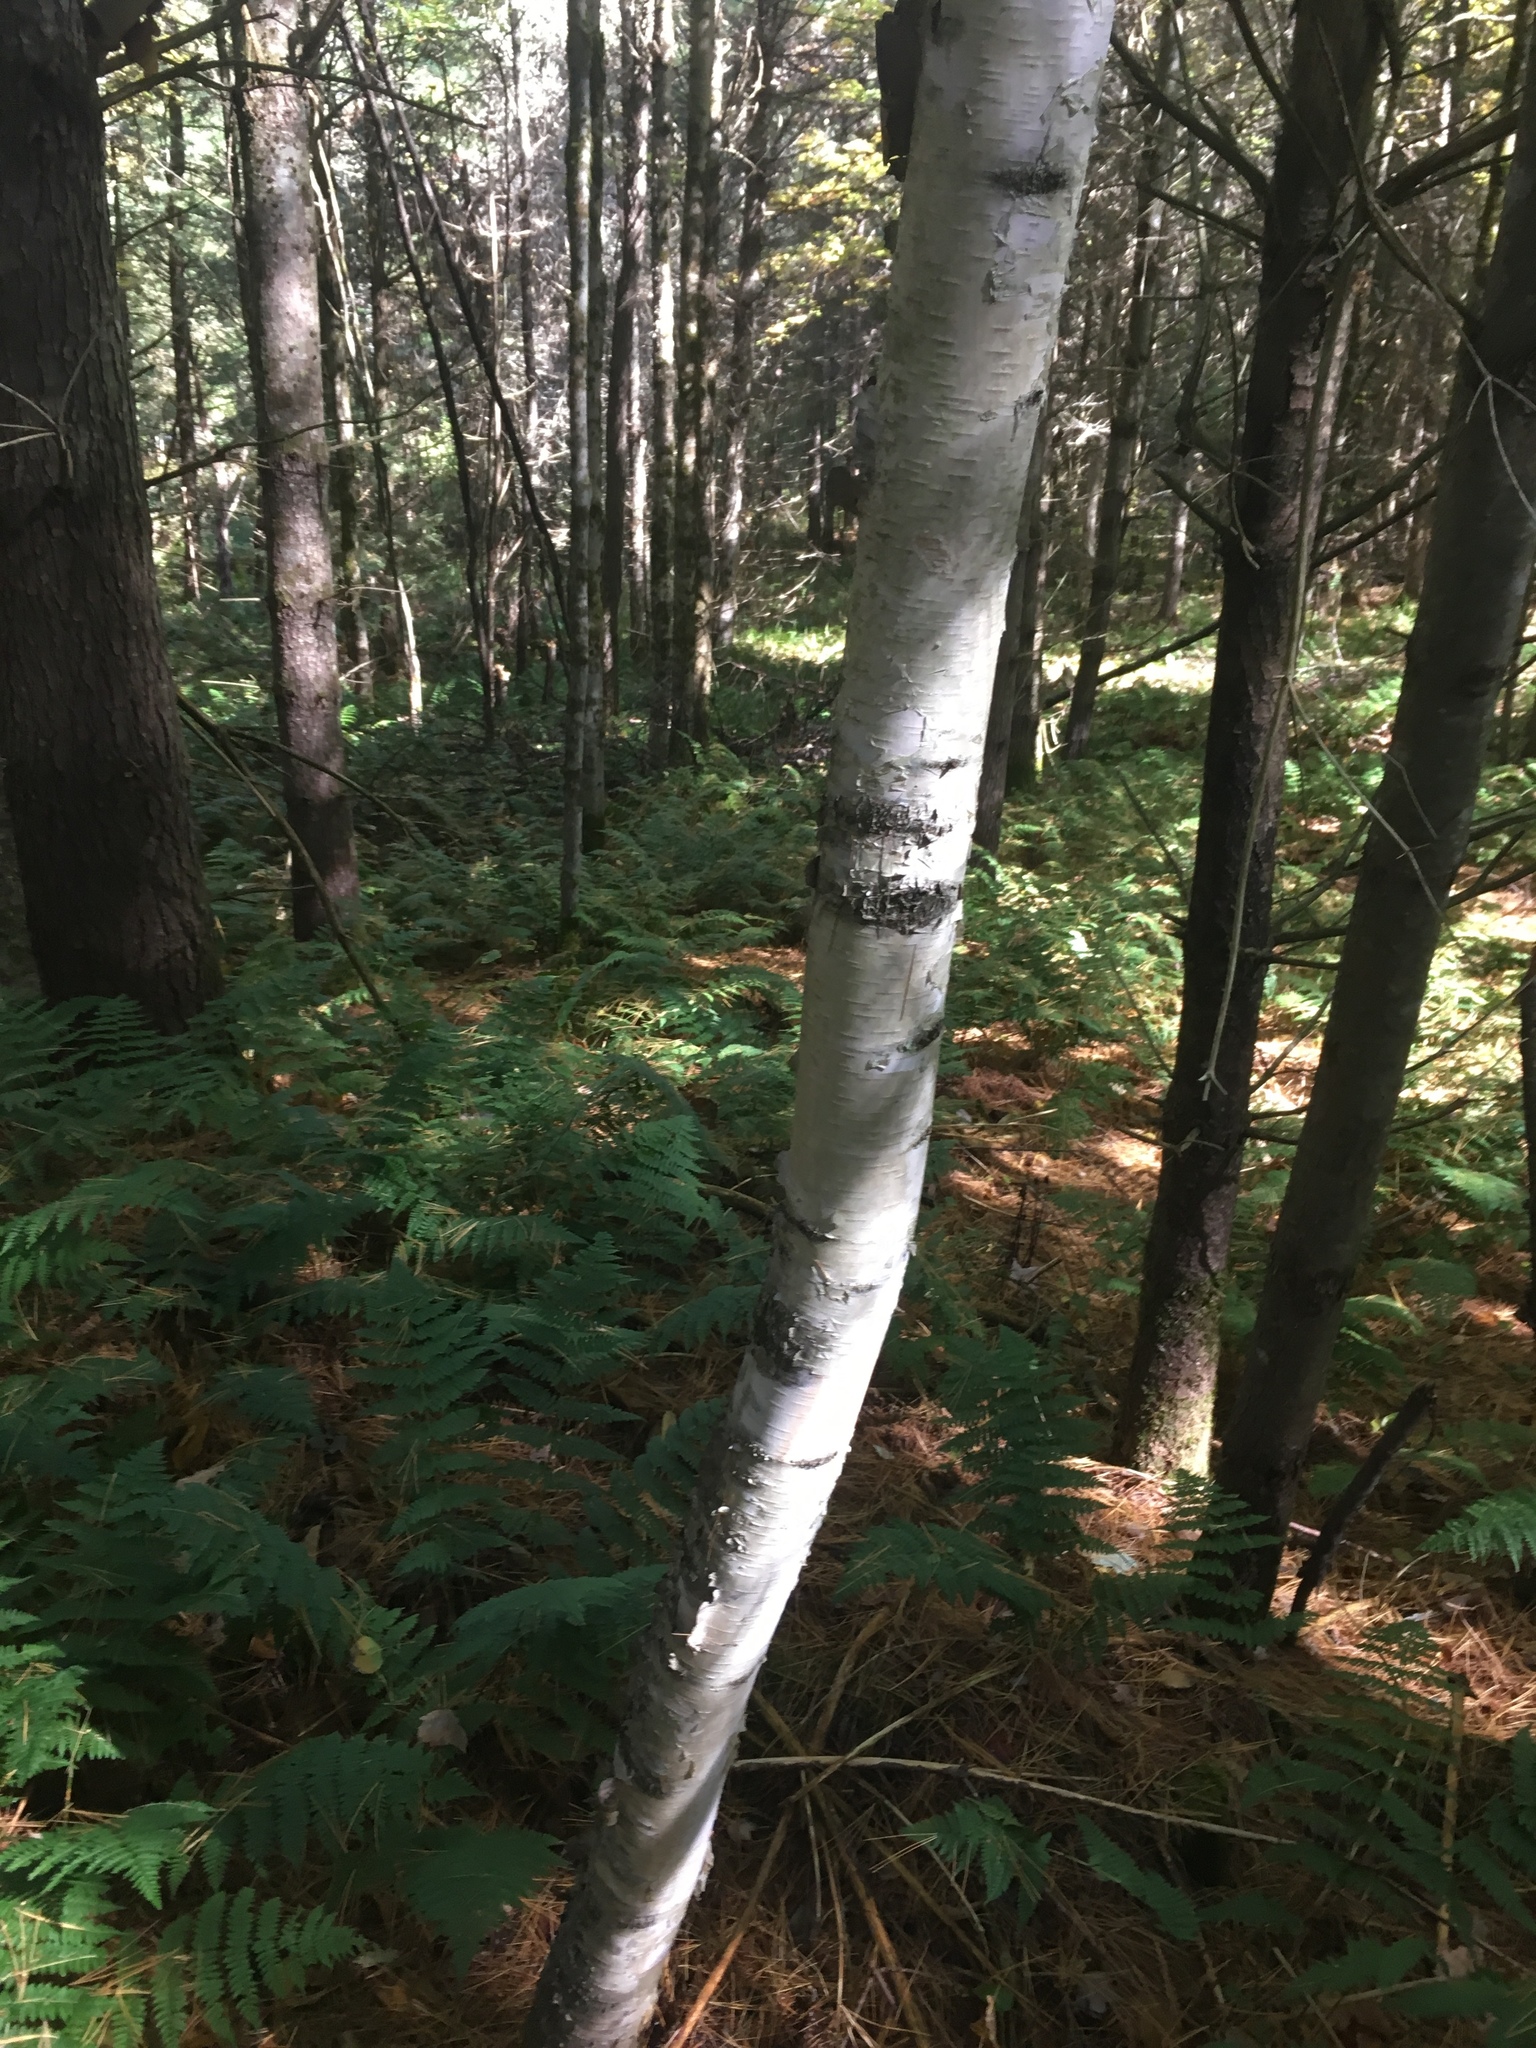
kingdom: Plantae
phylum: Tracheophyta
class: Magnoliopsida
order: Fagales
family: Betulaceae
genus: Betula
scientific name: Betula papyrifera
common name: Paper birch
